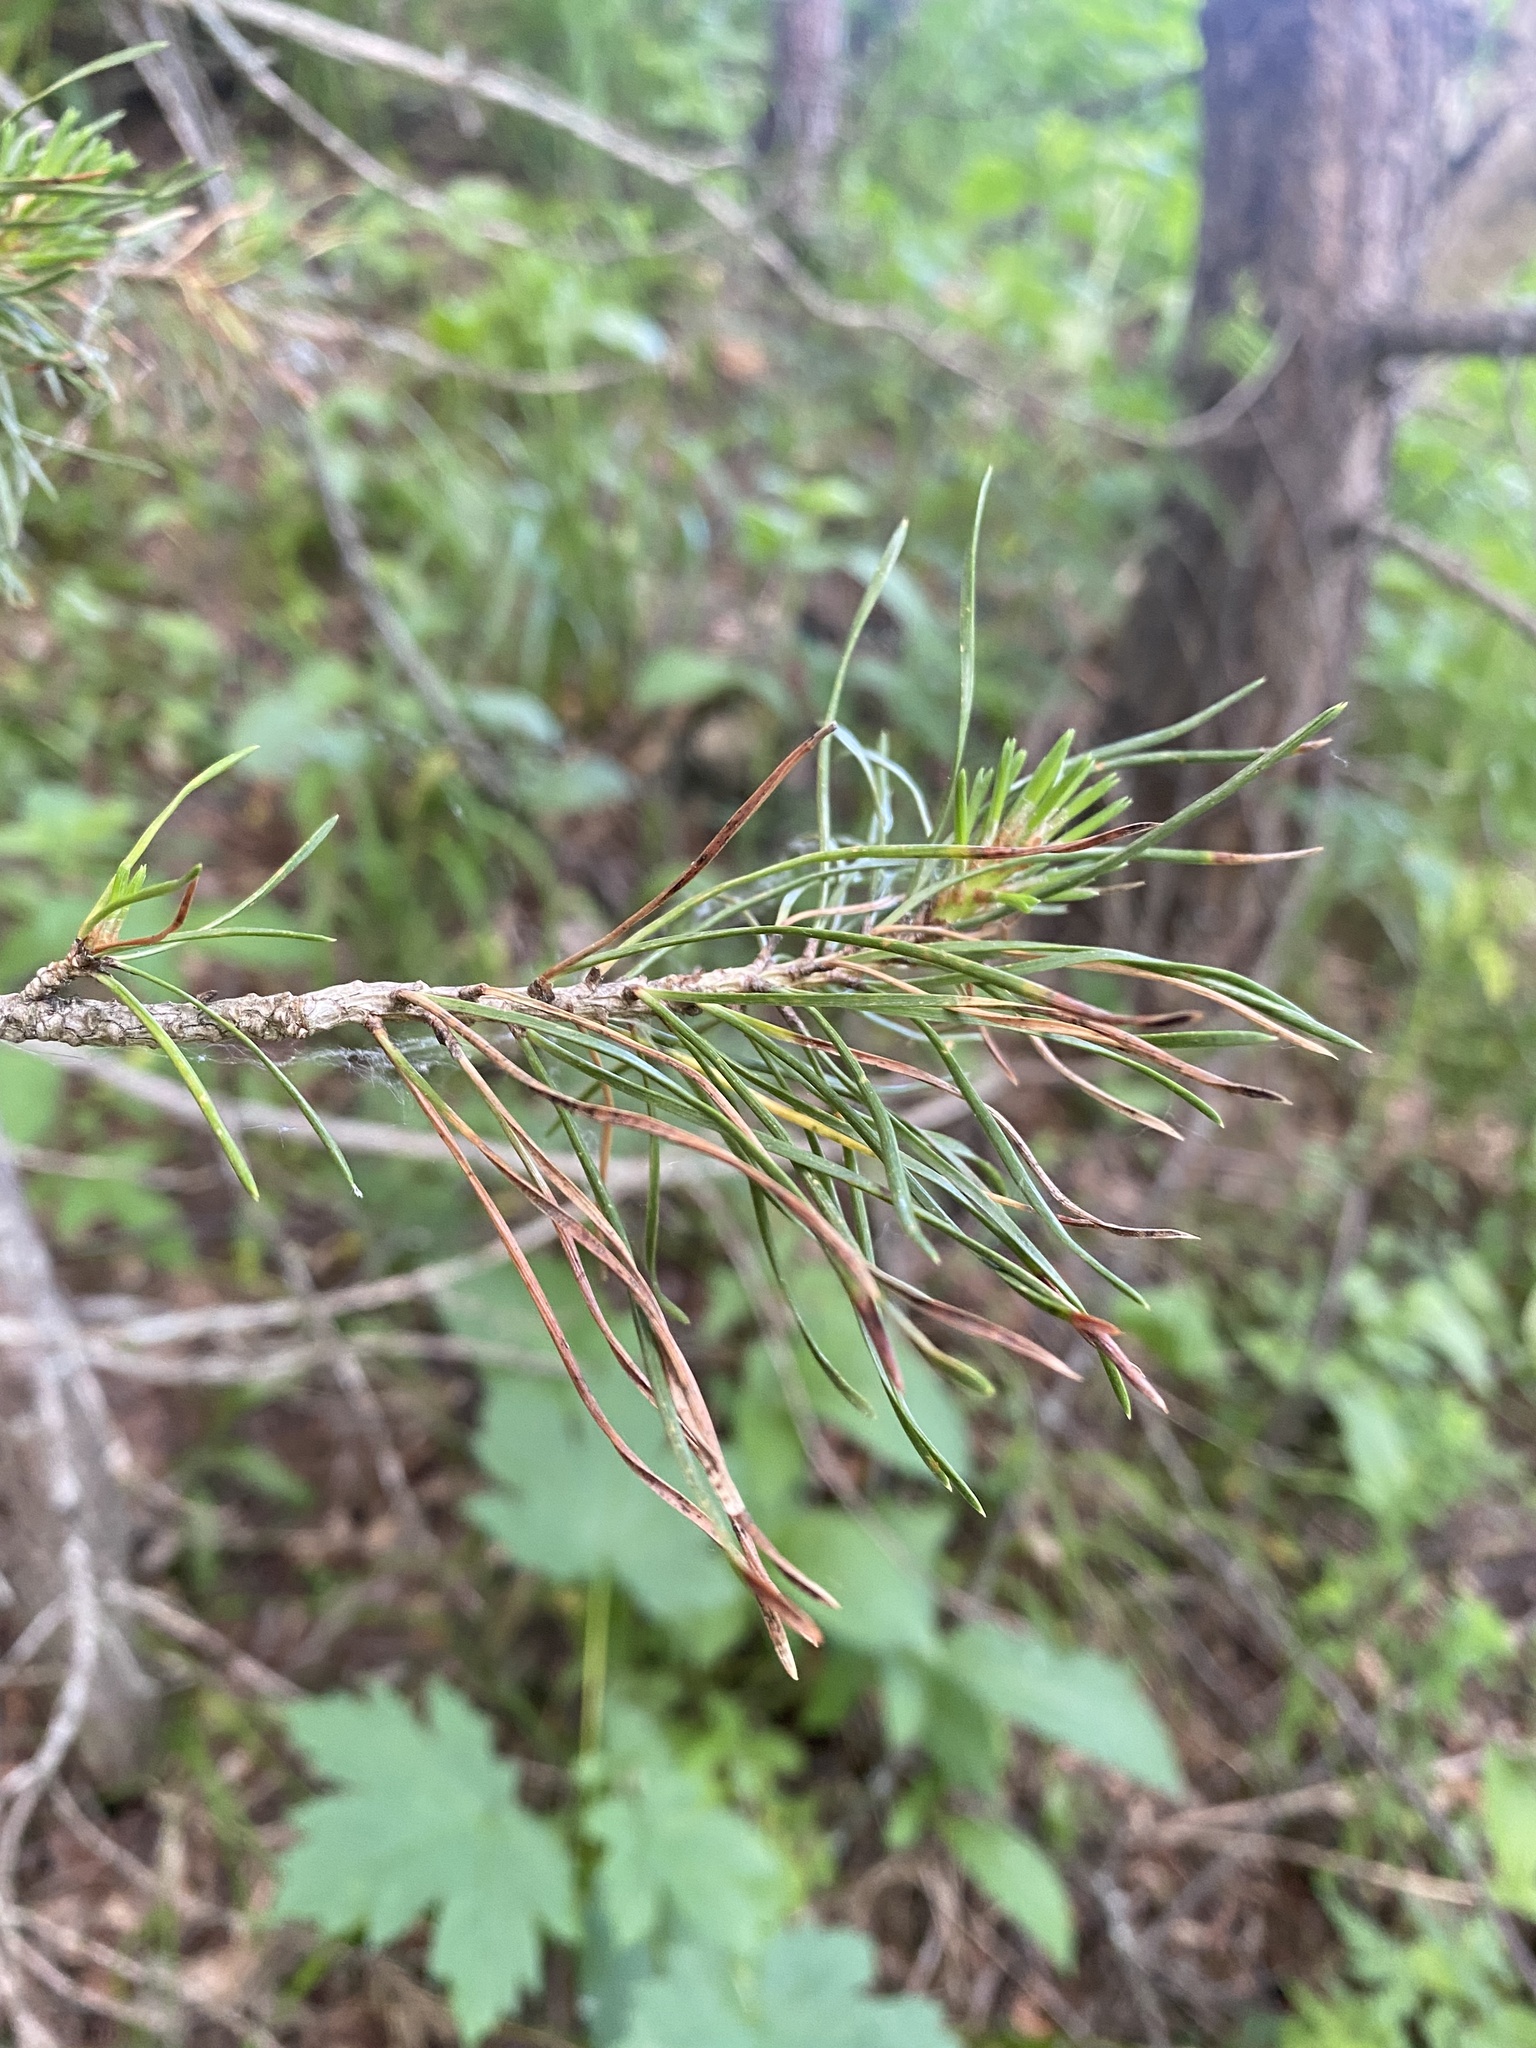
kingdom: Plantae
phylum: Tracheophyta
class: Pinopsida
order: Pinales
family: Pinaceae
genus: Pinus
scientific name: Pinus sylvestris
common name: Scots pine
